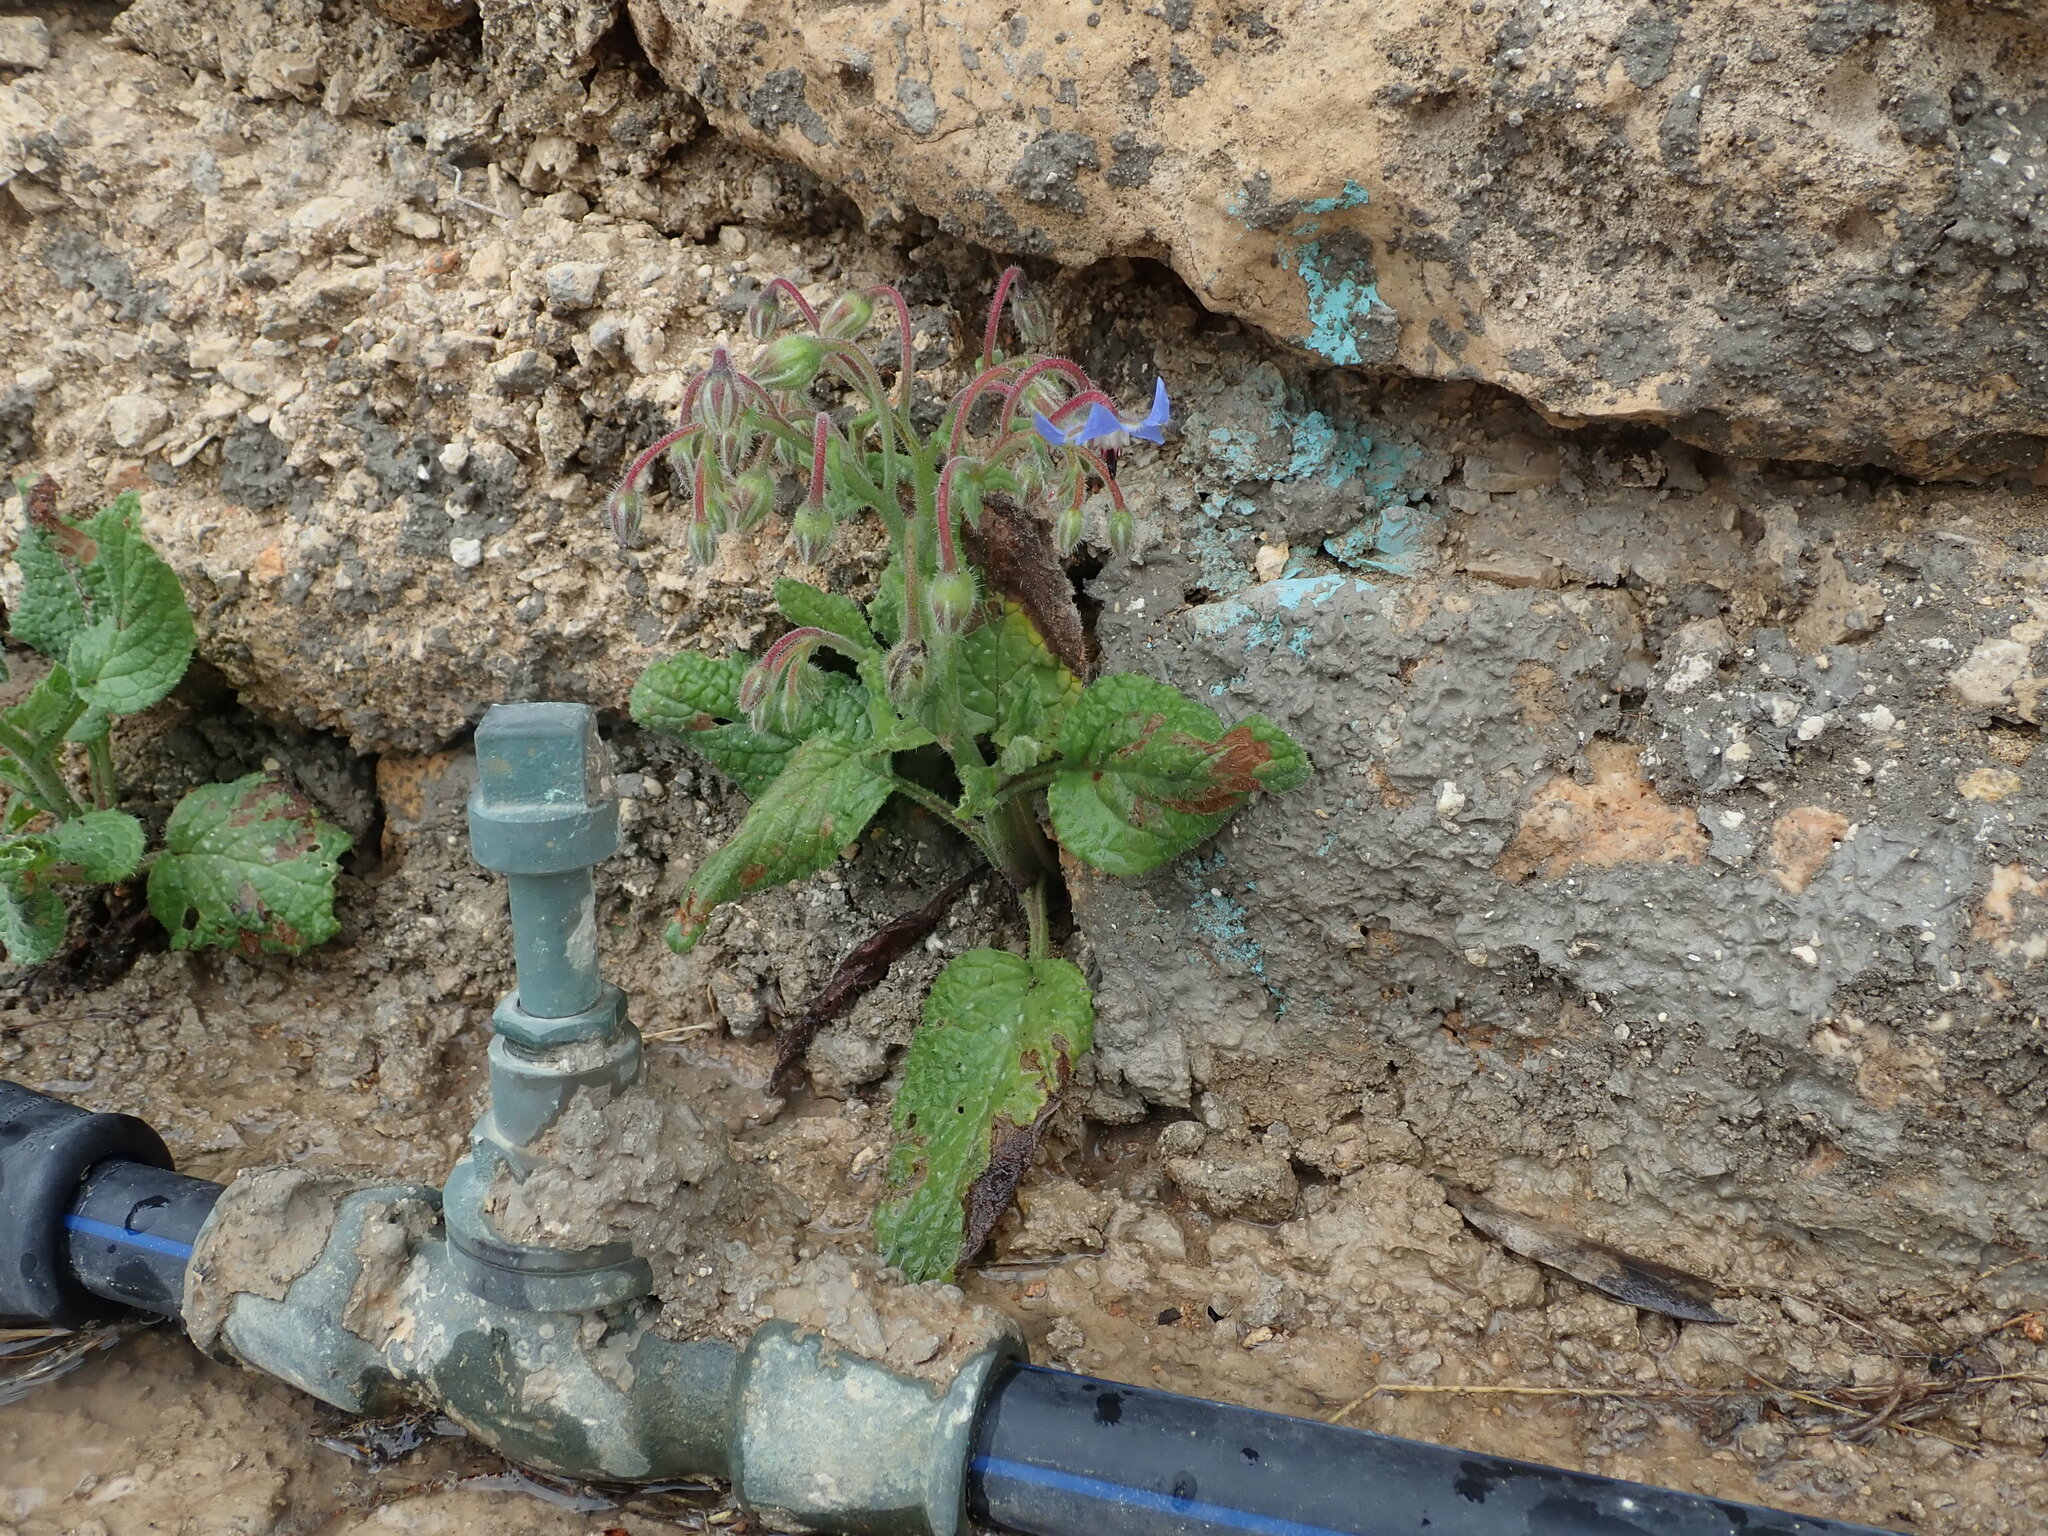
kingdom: Plantae
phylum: Tracheophyta
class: Magnoliopsida
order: Boraginales
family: Boraginaceae
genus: Borago
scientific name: Borago officinalis
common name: Borage
